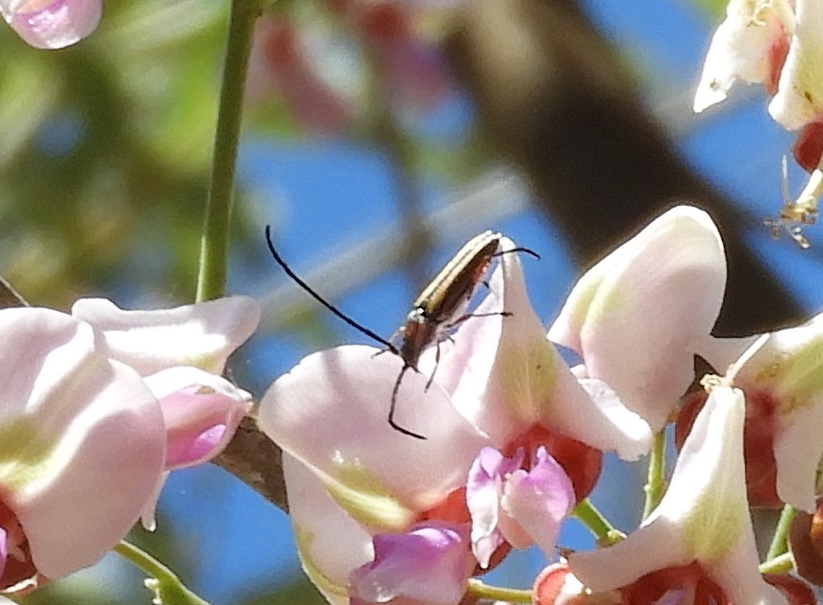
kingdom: Animalia
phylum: Arthropoda
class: Insecta
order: Coleoptera
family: Cerambycidae
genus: Sphaenothecus
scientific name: Sphaenothecus bilineatus
